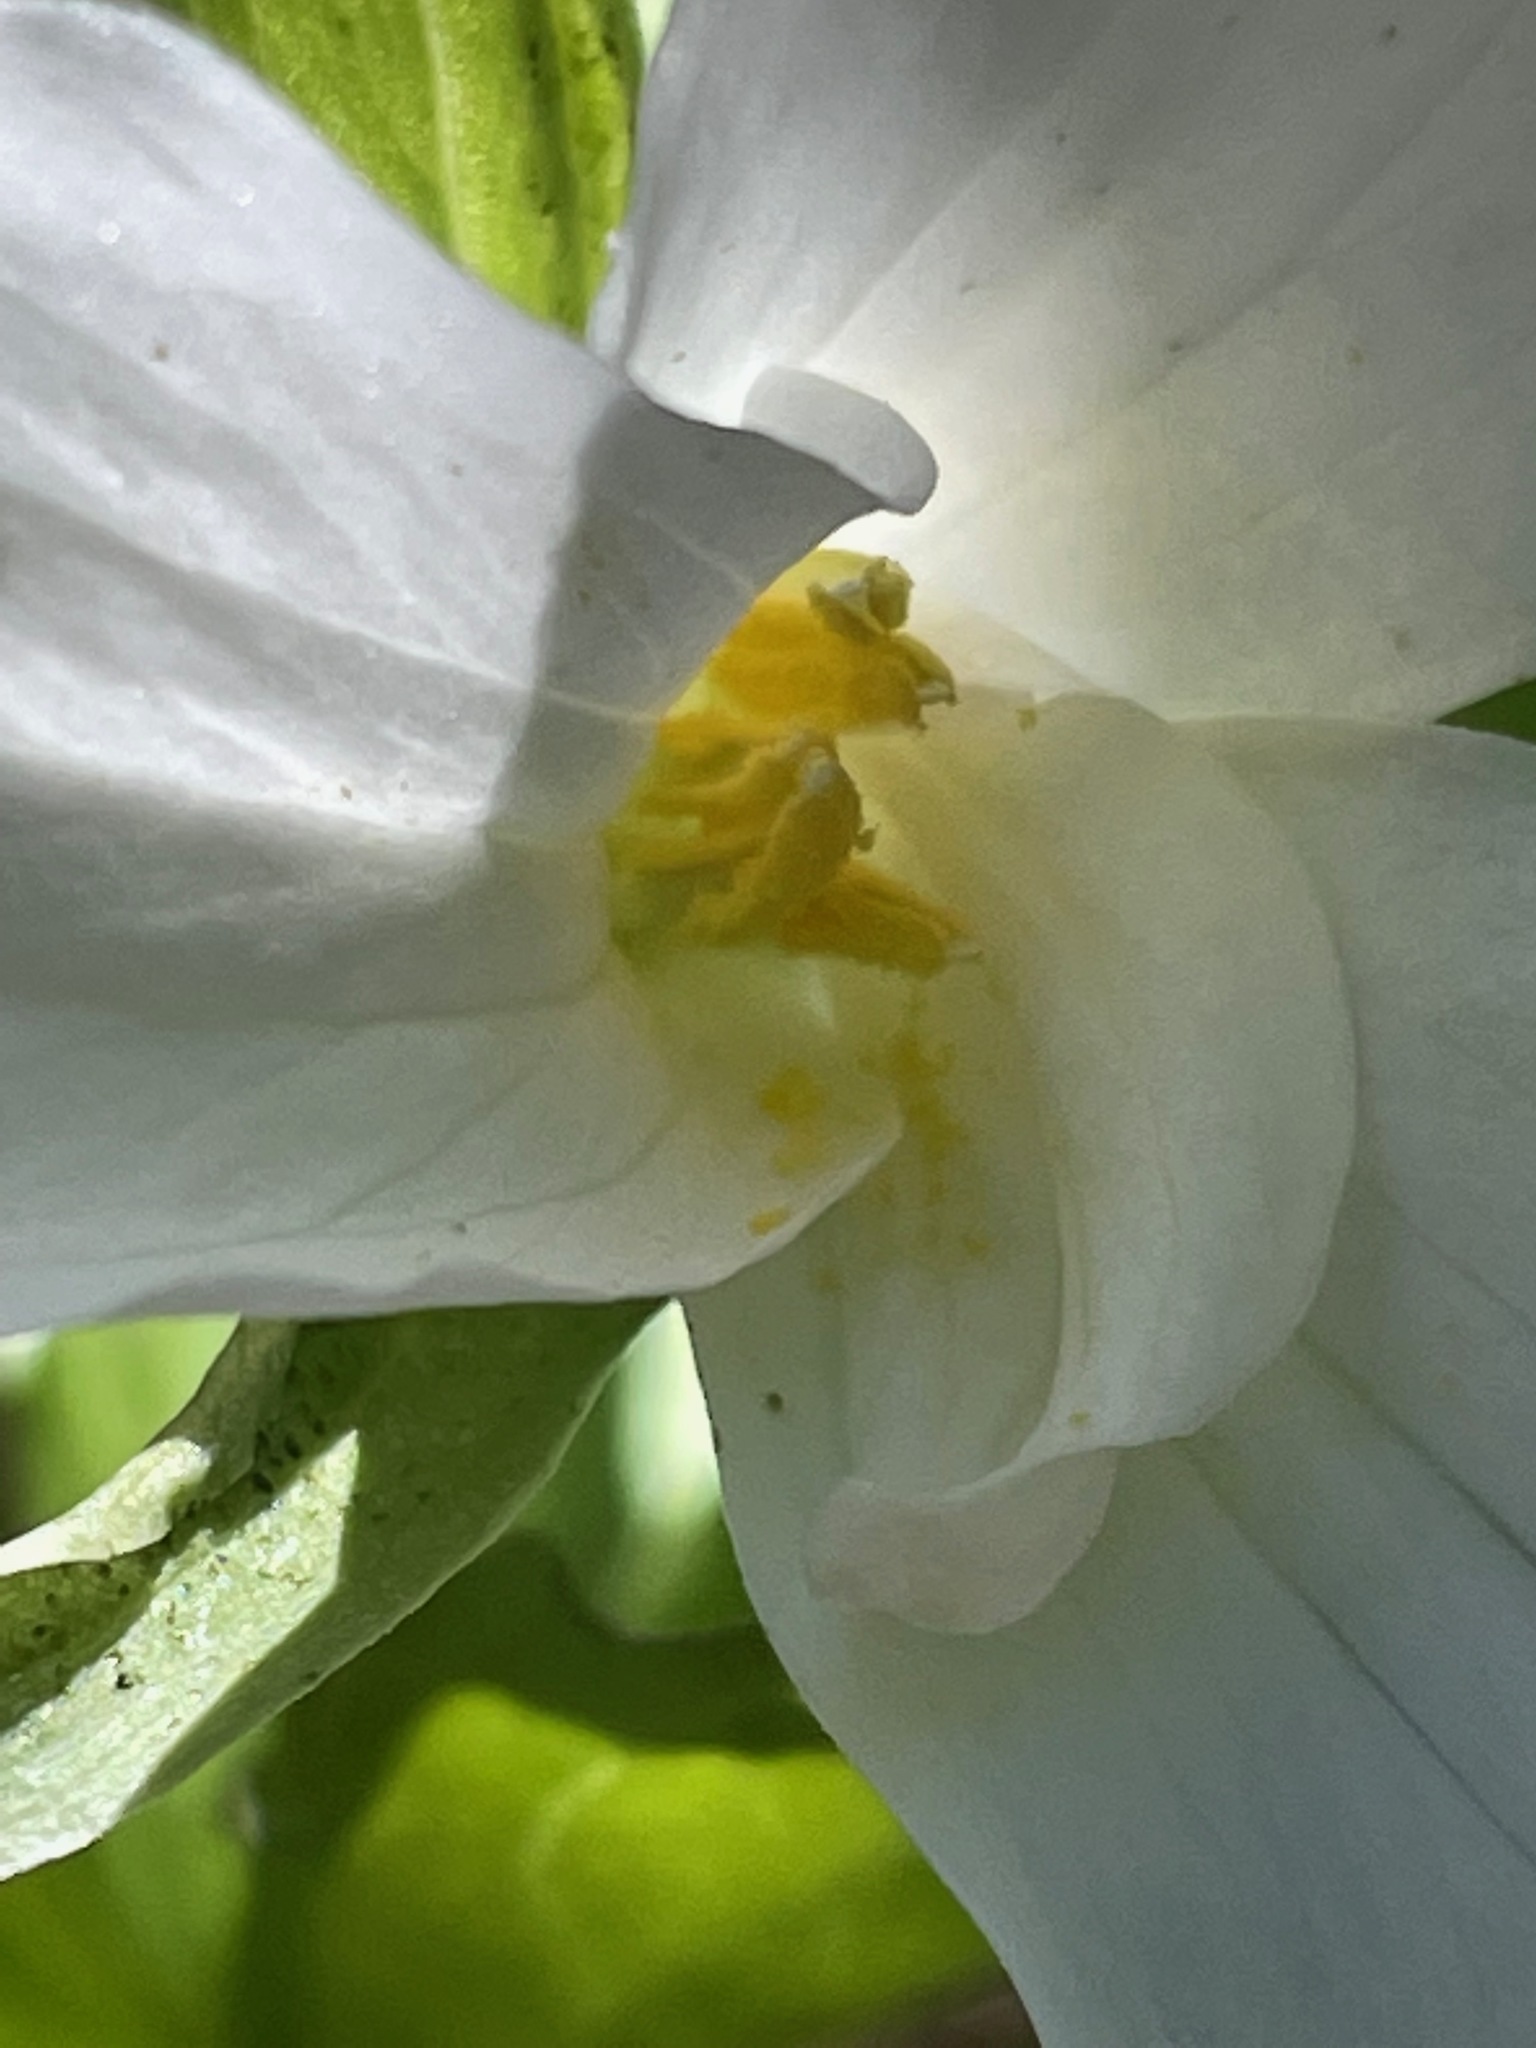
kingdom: Plantae
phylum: Tracheophyta
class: Liliopsida
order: Liliales
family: Melanthiaceae
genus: Trillium
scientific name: Trillium grandiflorum
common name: Great white trillium
